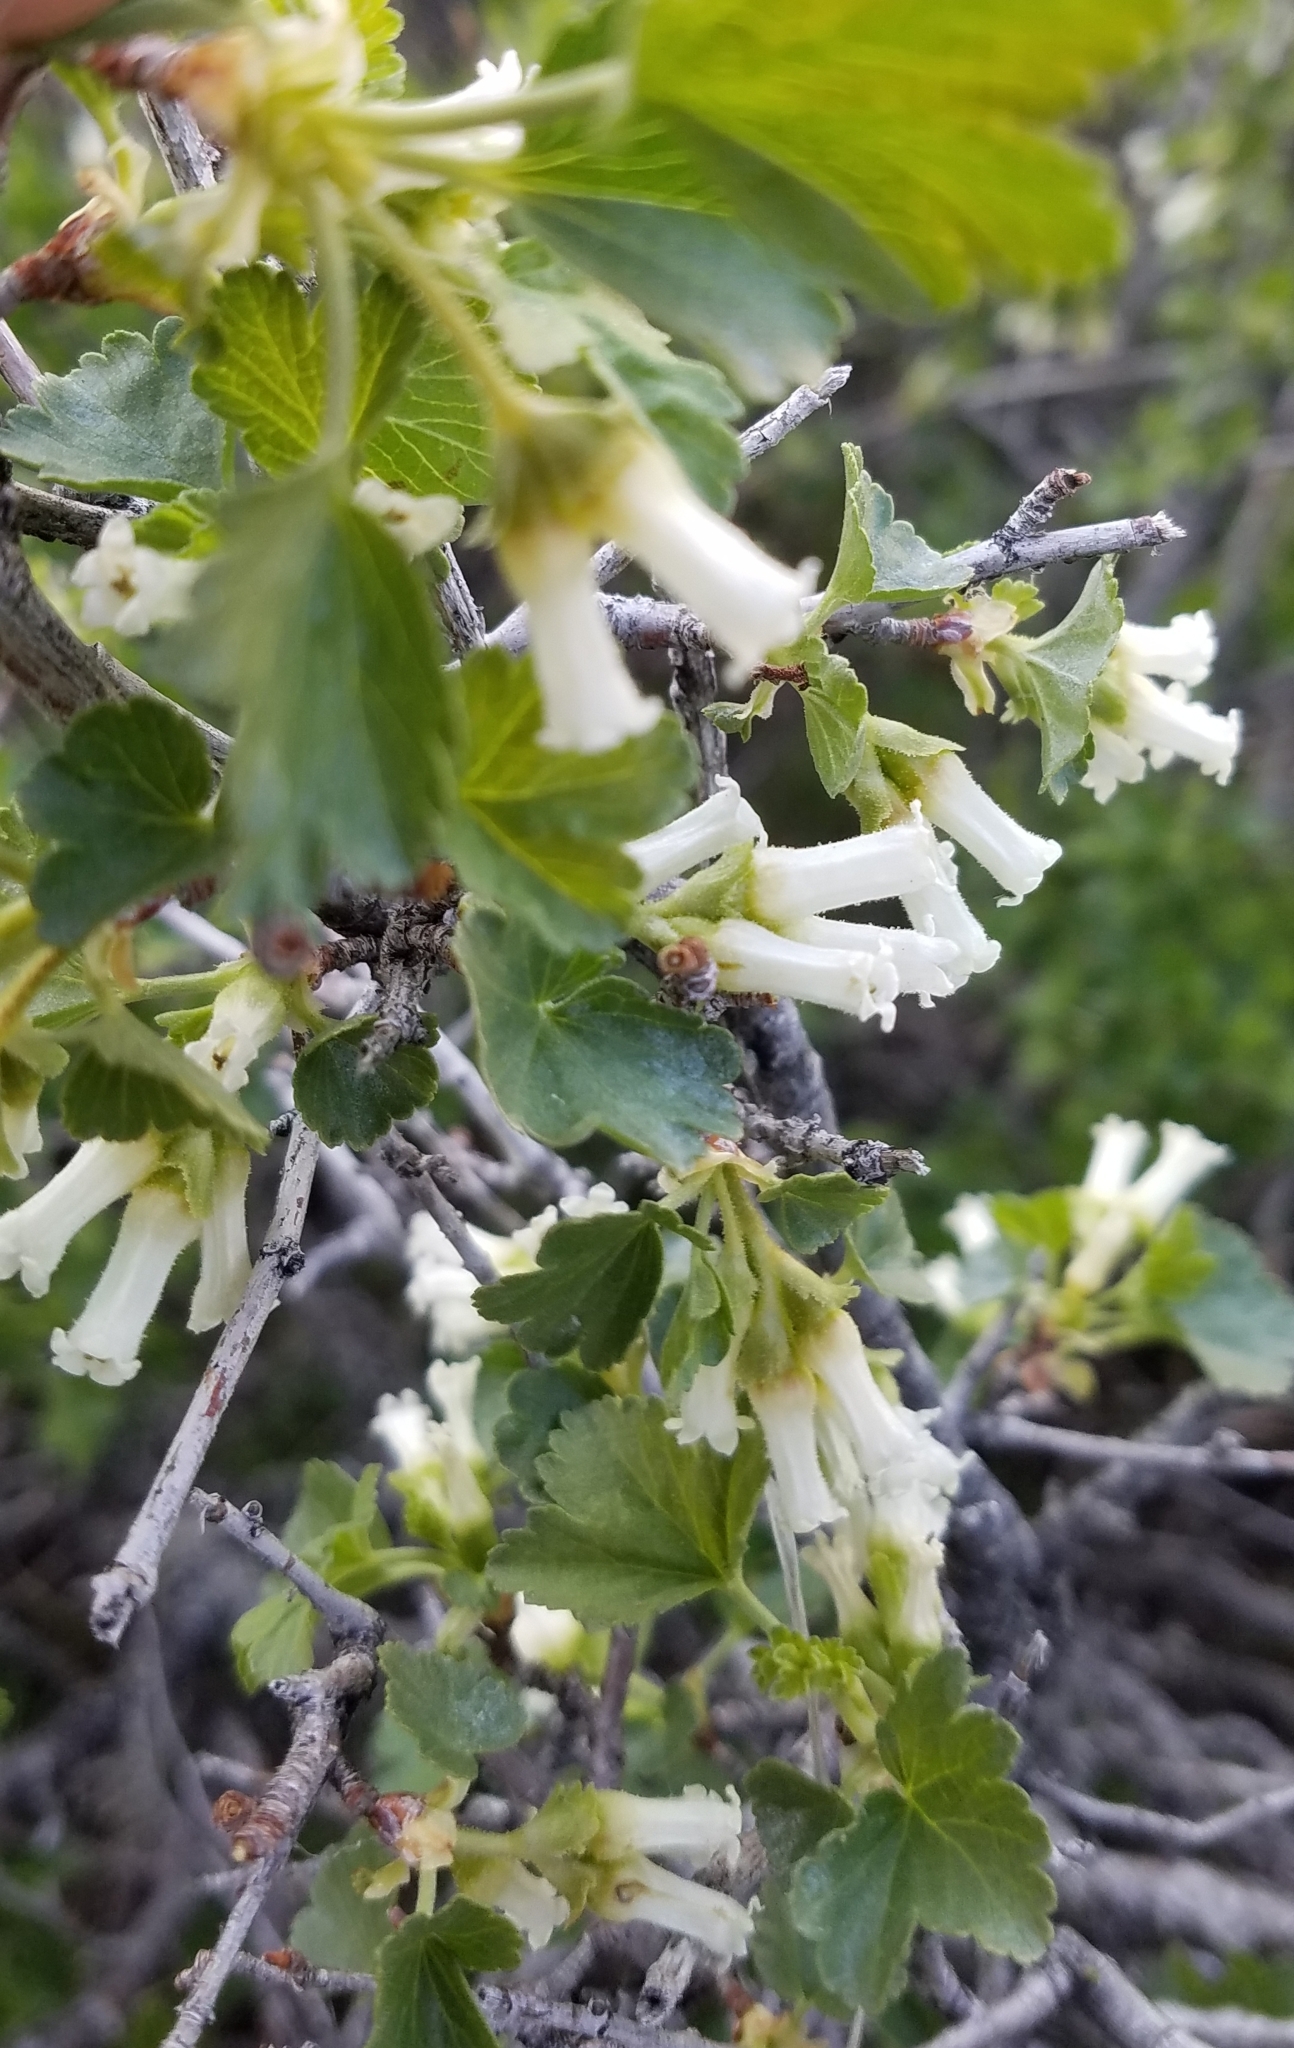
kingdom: Plantae
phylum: Tracheophyta
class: Magnoliopsida
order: Saxifragales
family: Grossulariaceae
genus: Ribes
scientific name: Ribes cereum
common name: Wax currant
